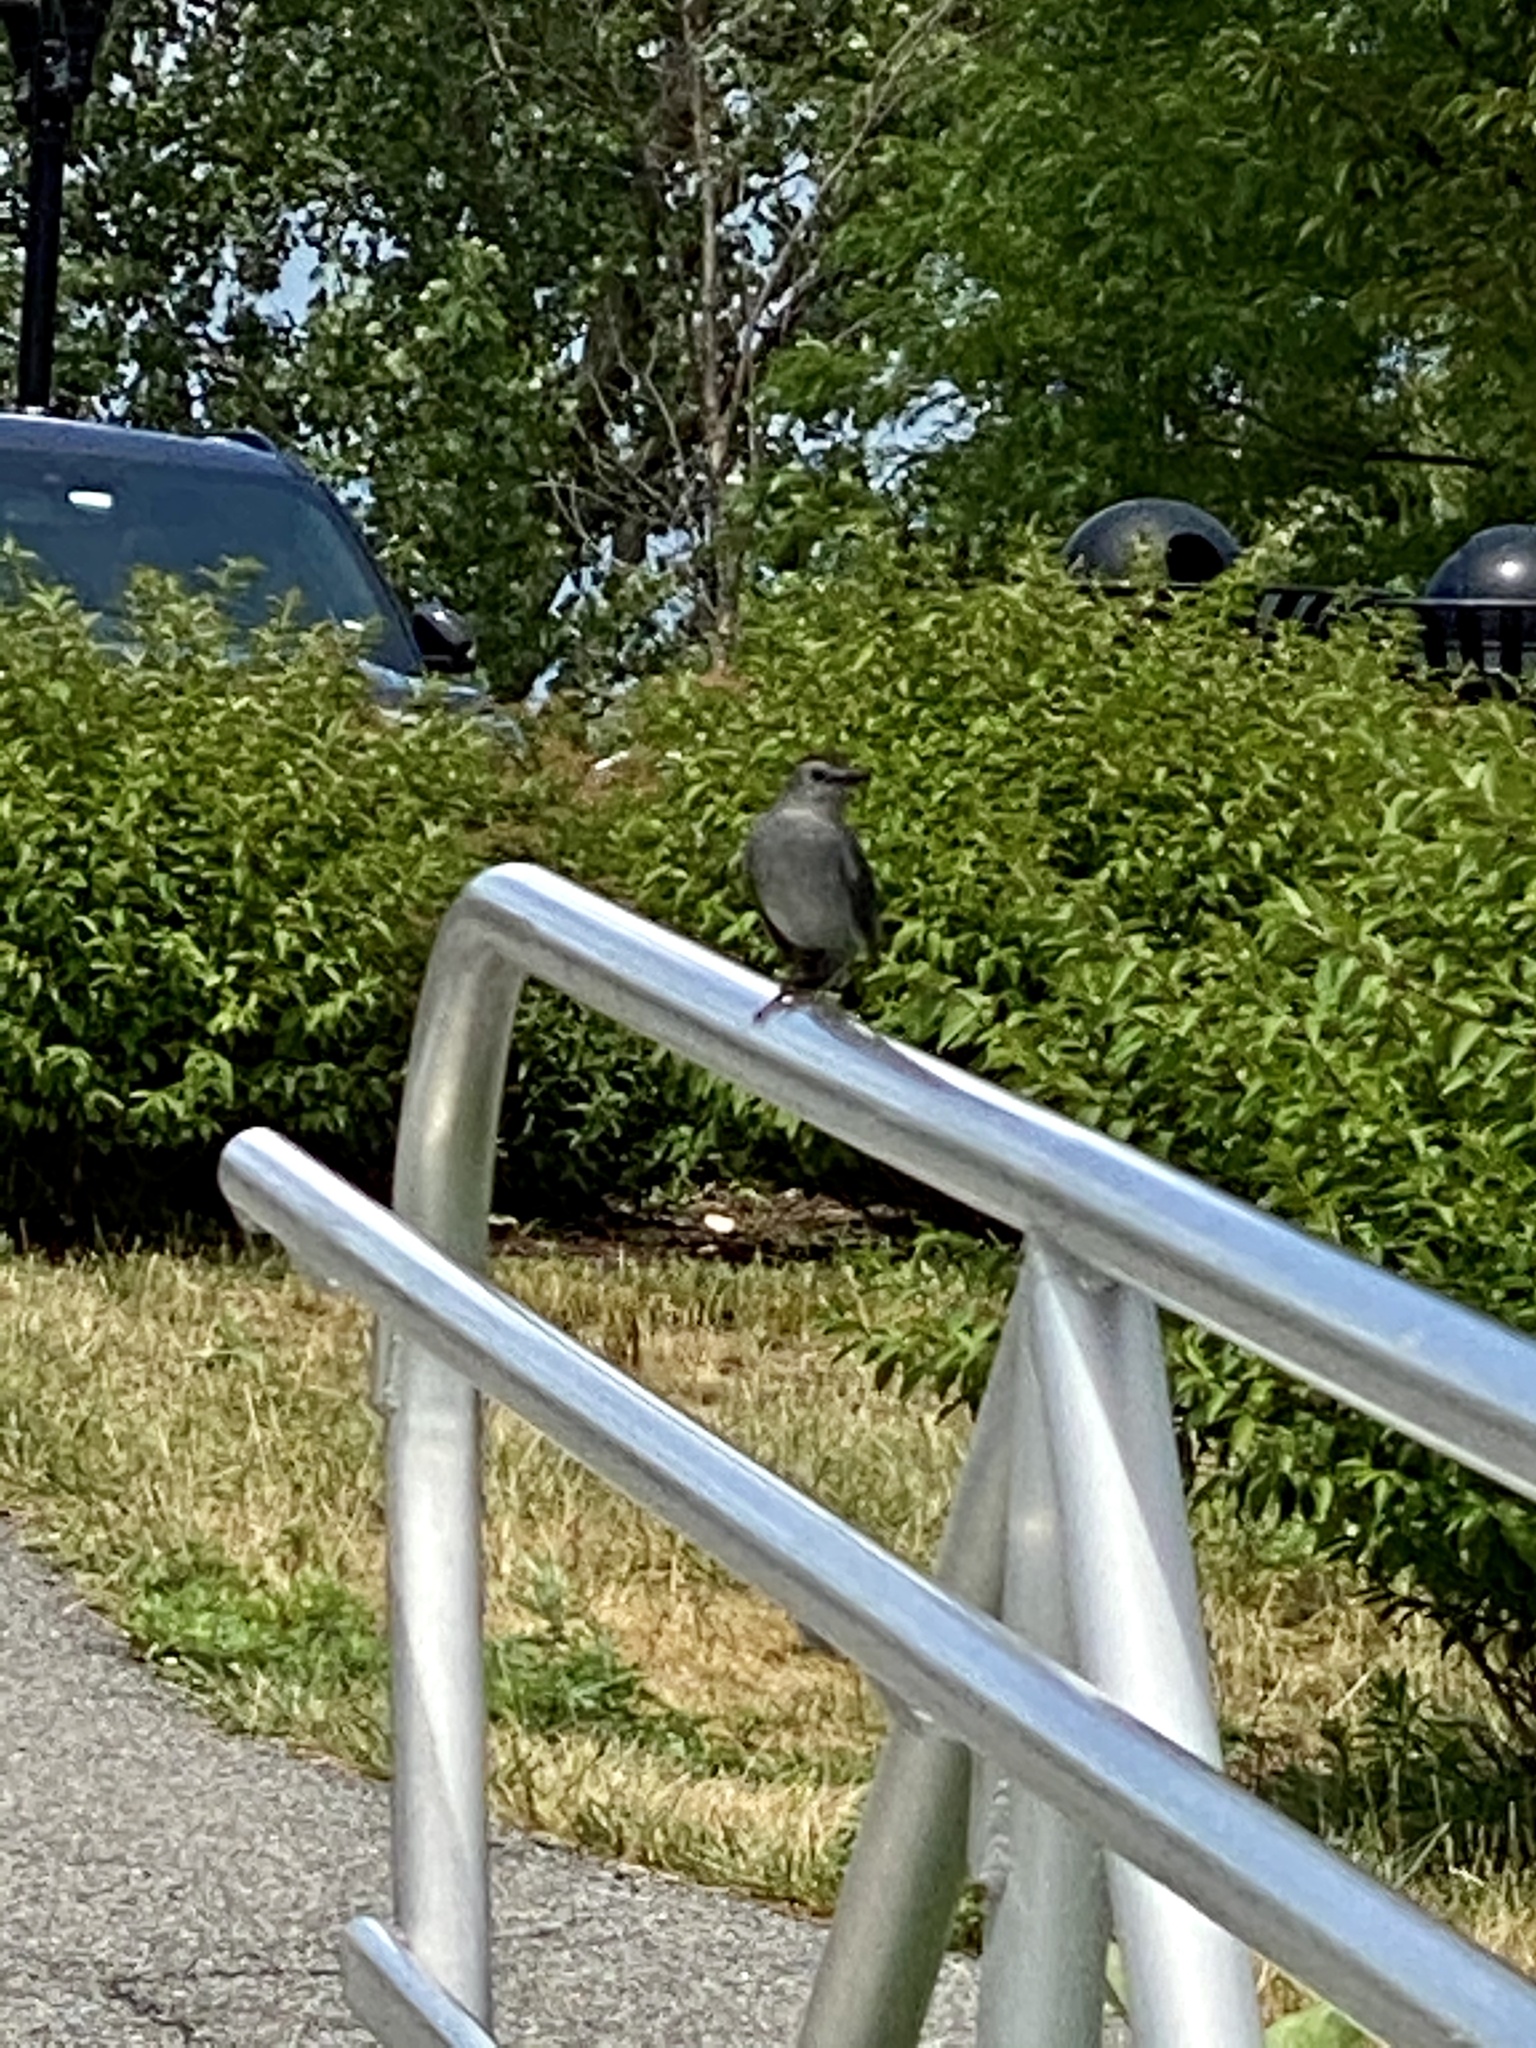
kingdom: Animalia
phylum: Chordata
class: Aves
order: Passeriformes
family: Mimidae
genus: Dumetella
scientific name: Dumetella carolinensis
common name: Gray catbird
